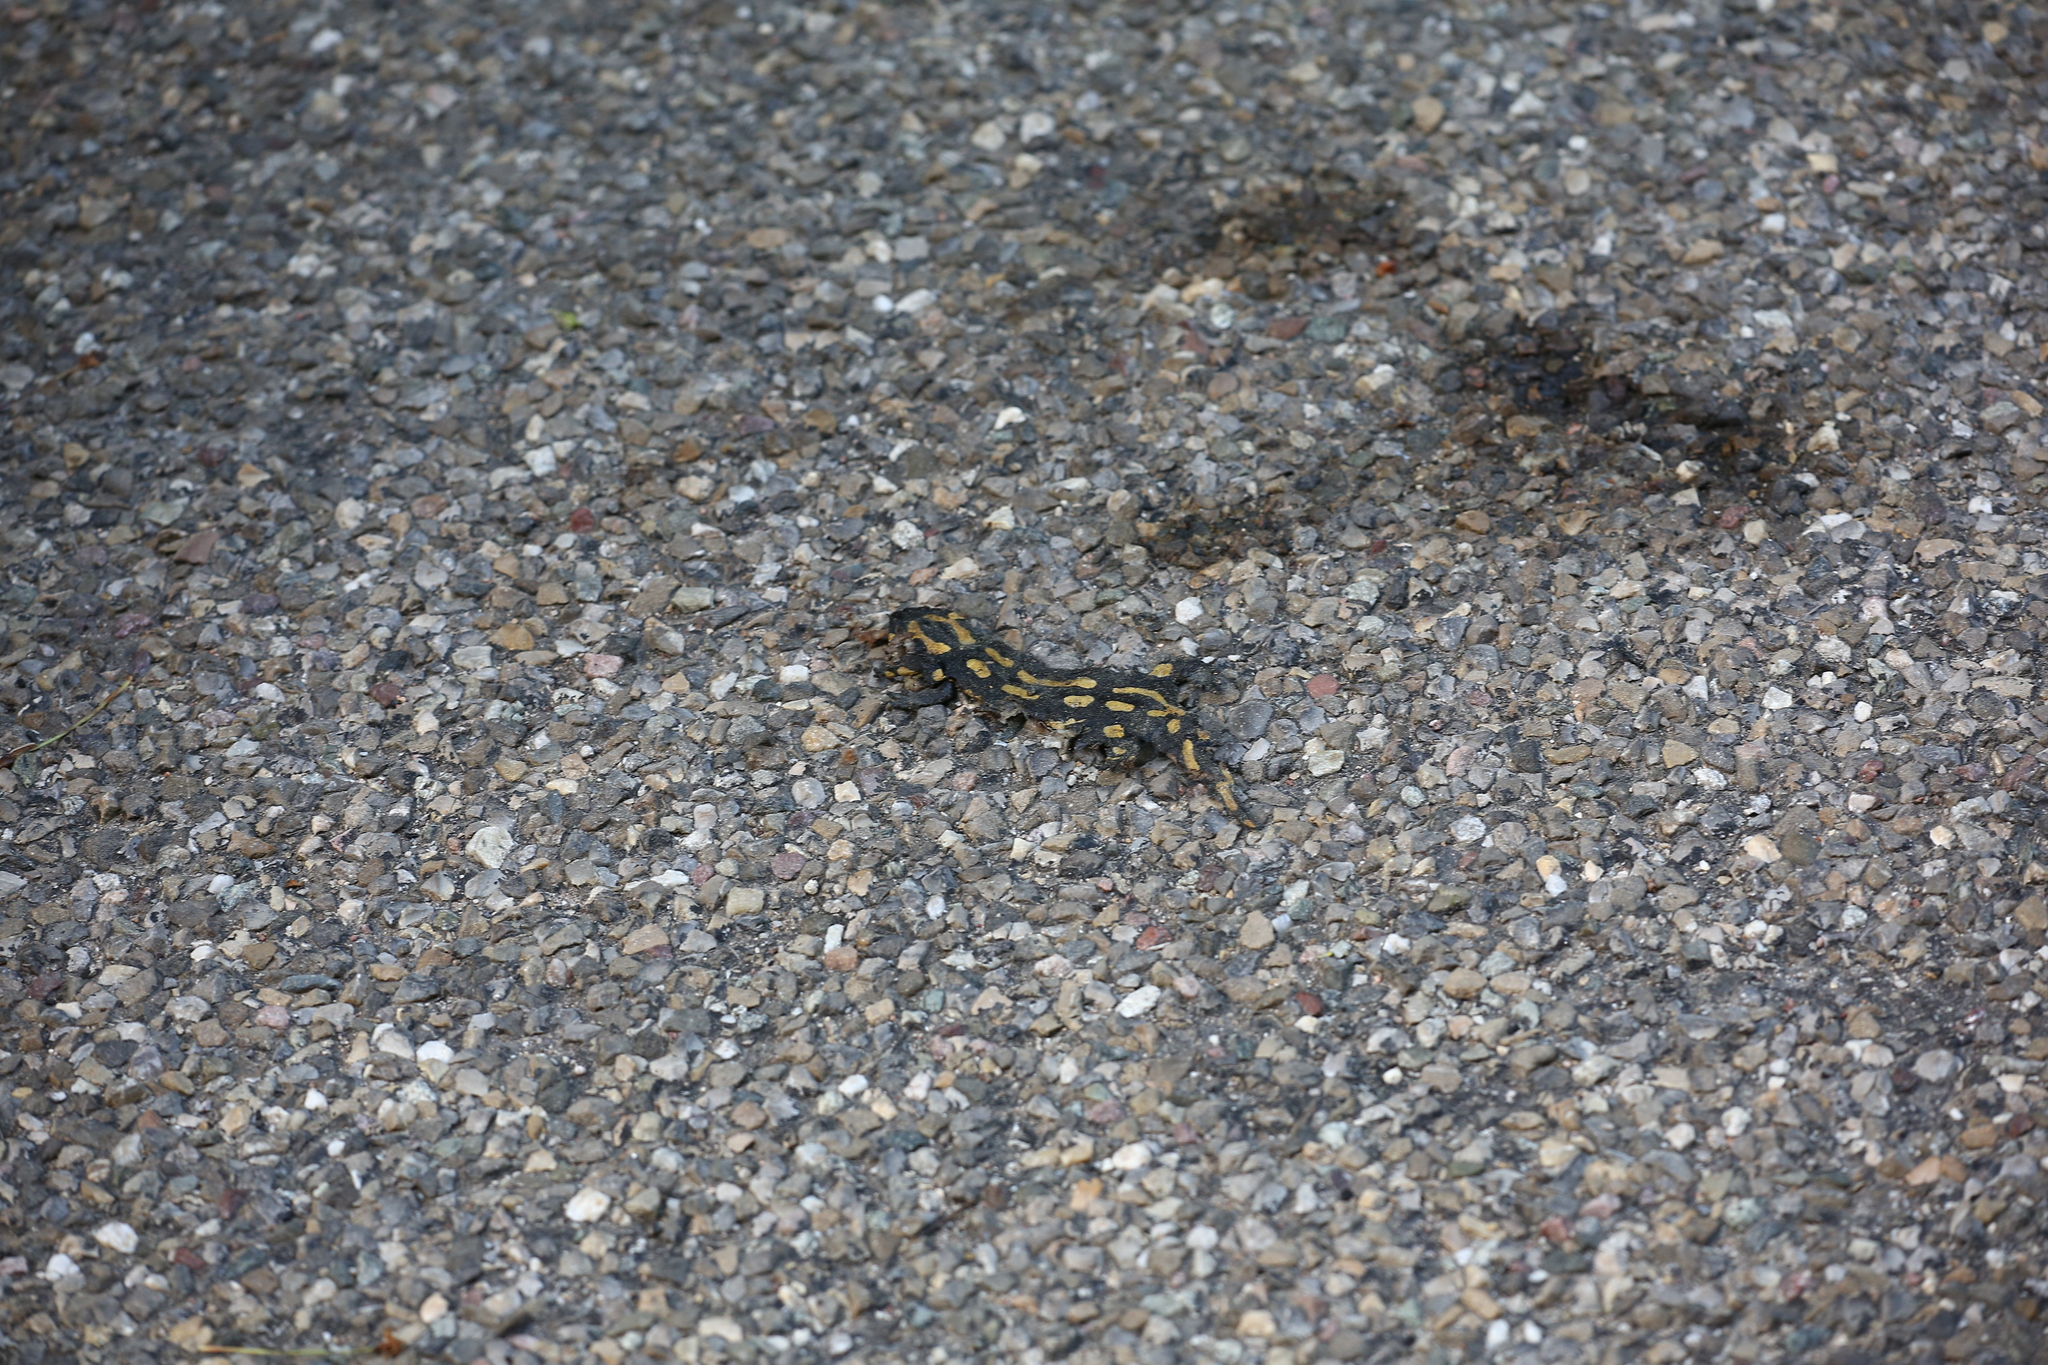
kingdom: Animalia
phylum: Chordata
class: Amphibia
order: Caudata
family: Salamandridae
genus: Salamandra
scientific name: Salamandra salamandra
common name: Fire salamander
